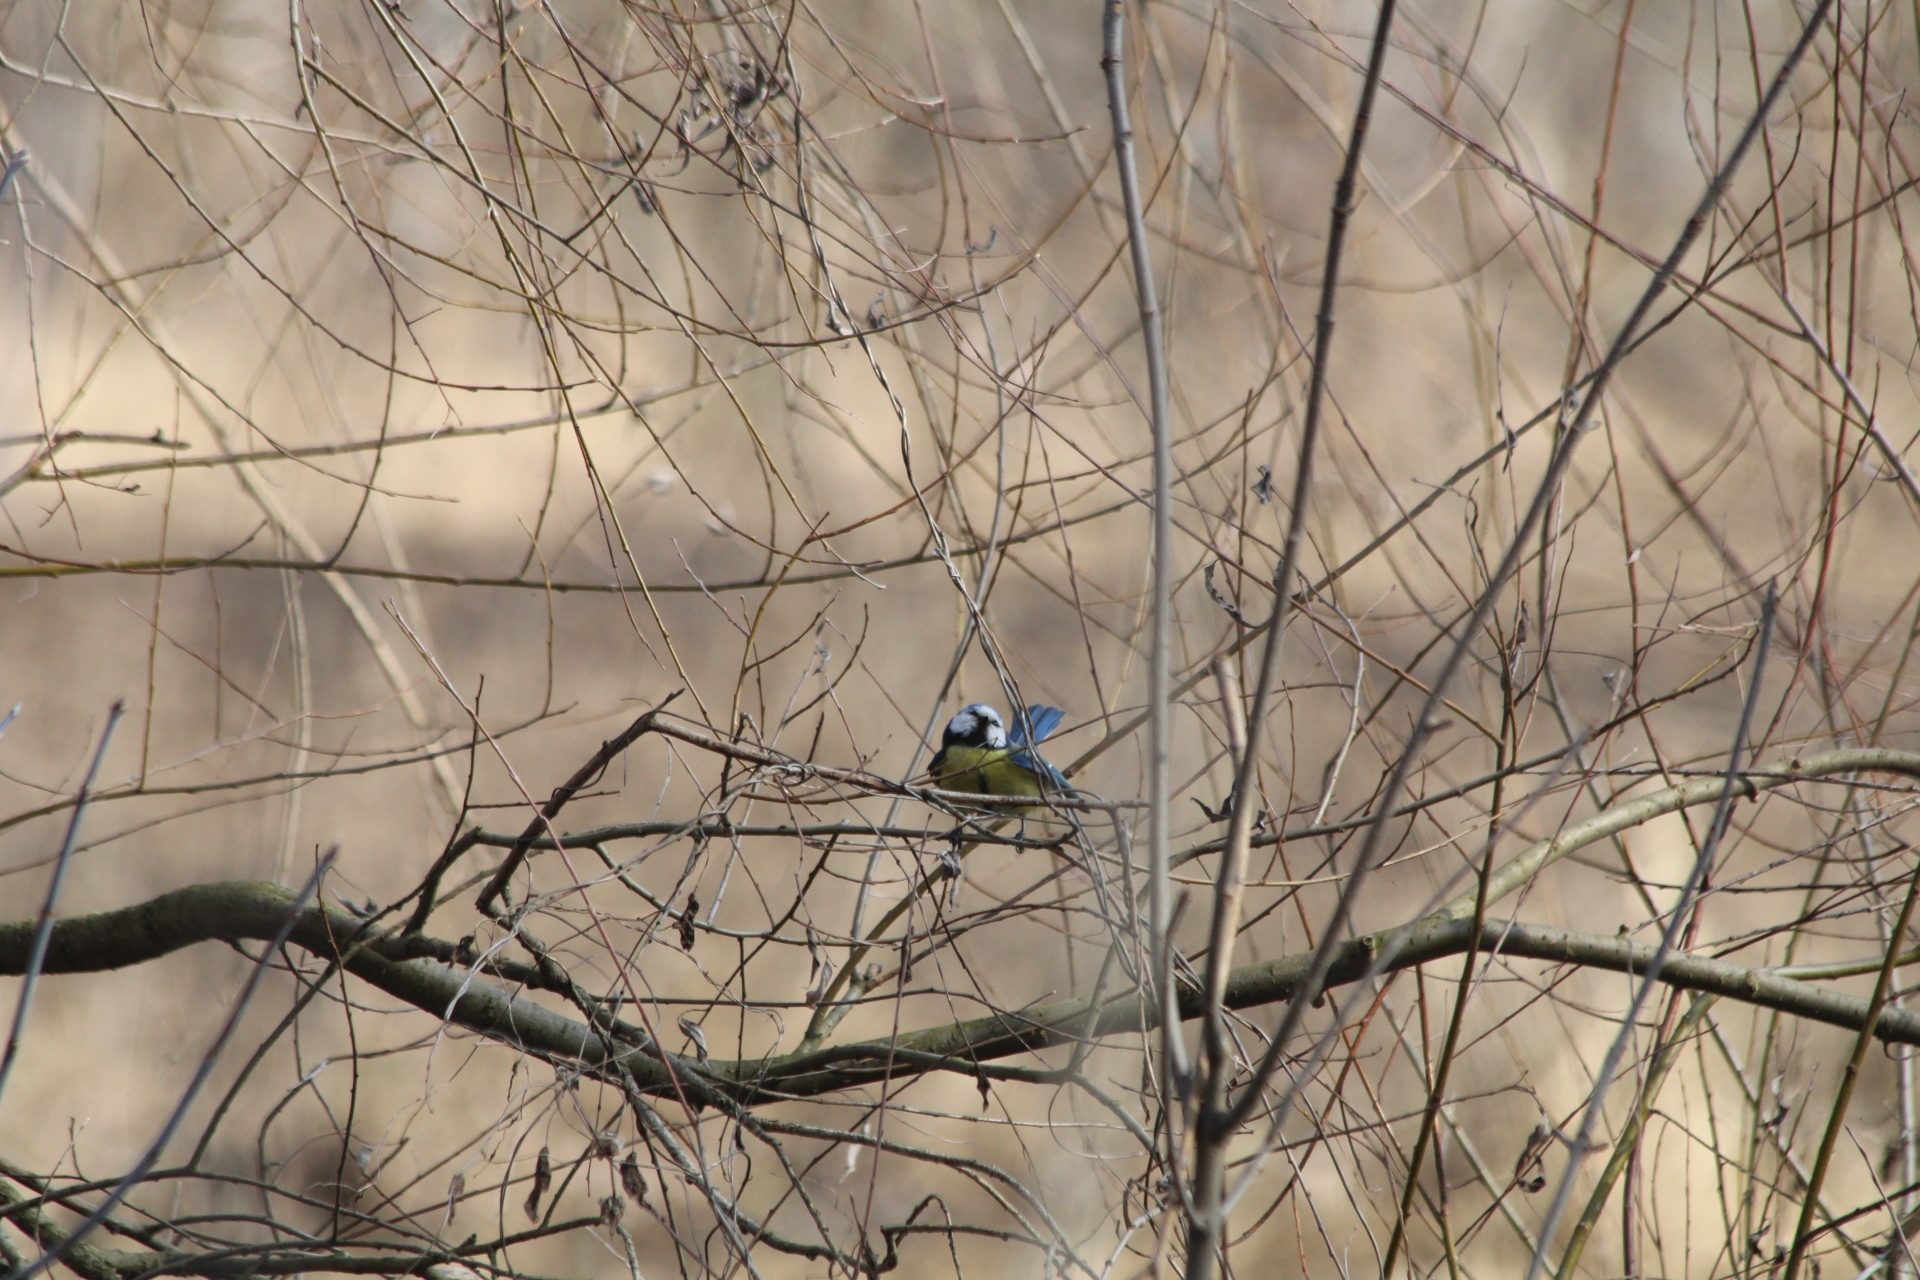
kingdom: Animalia
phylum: Chordata
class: Aves
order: Passeriformes
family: Paridae
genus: Cyanistes
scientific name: Cyanistes caeruleus
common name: Eurasian blue tit
